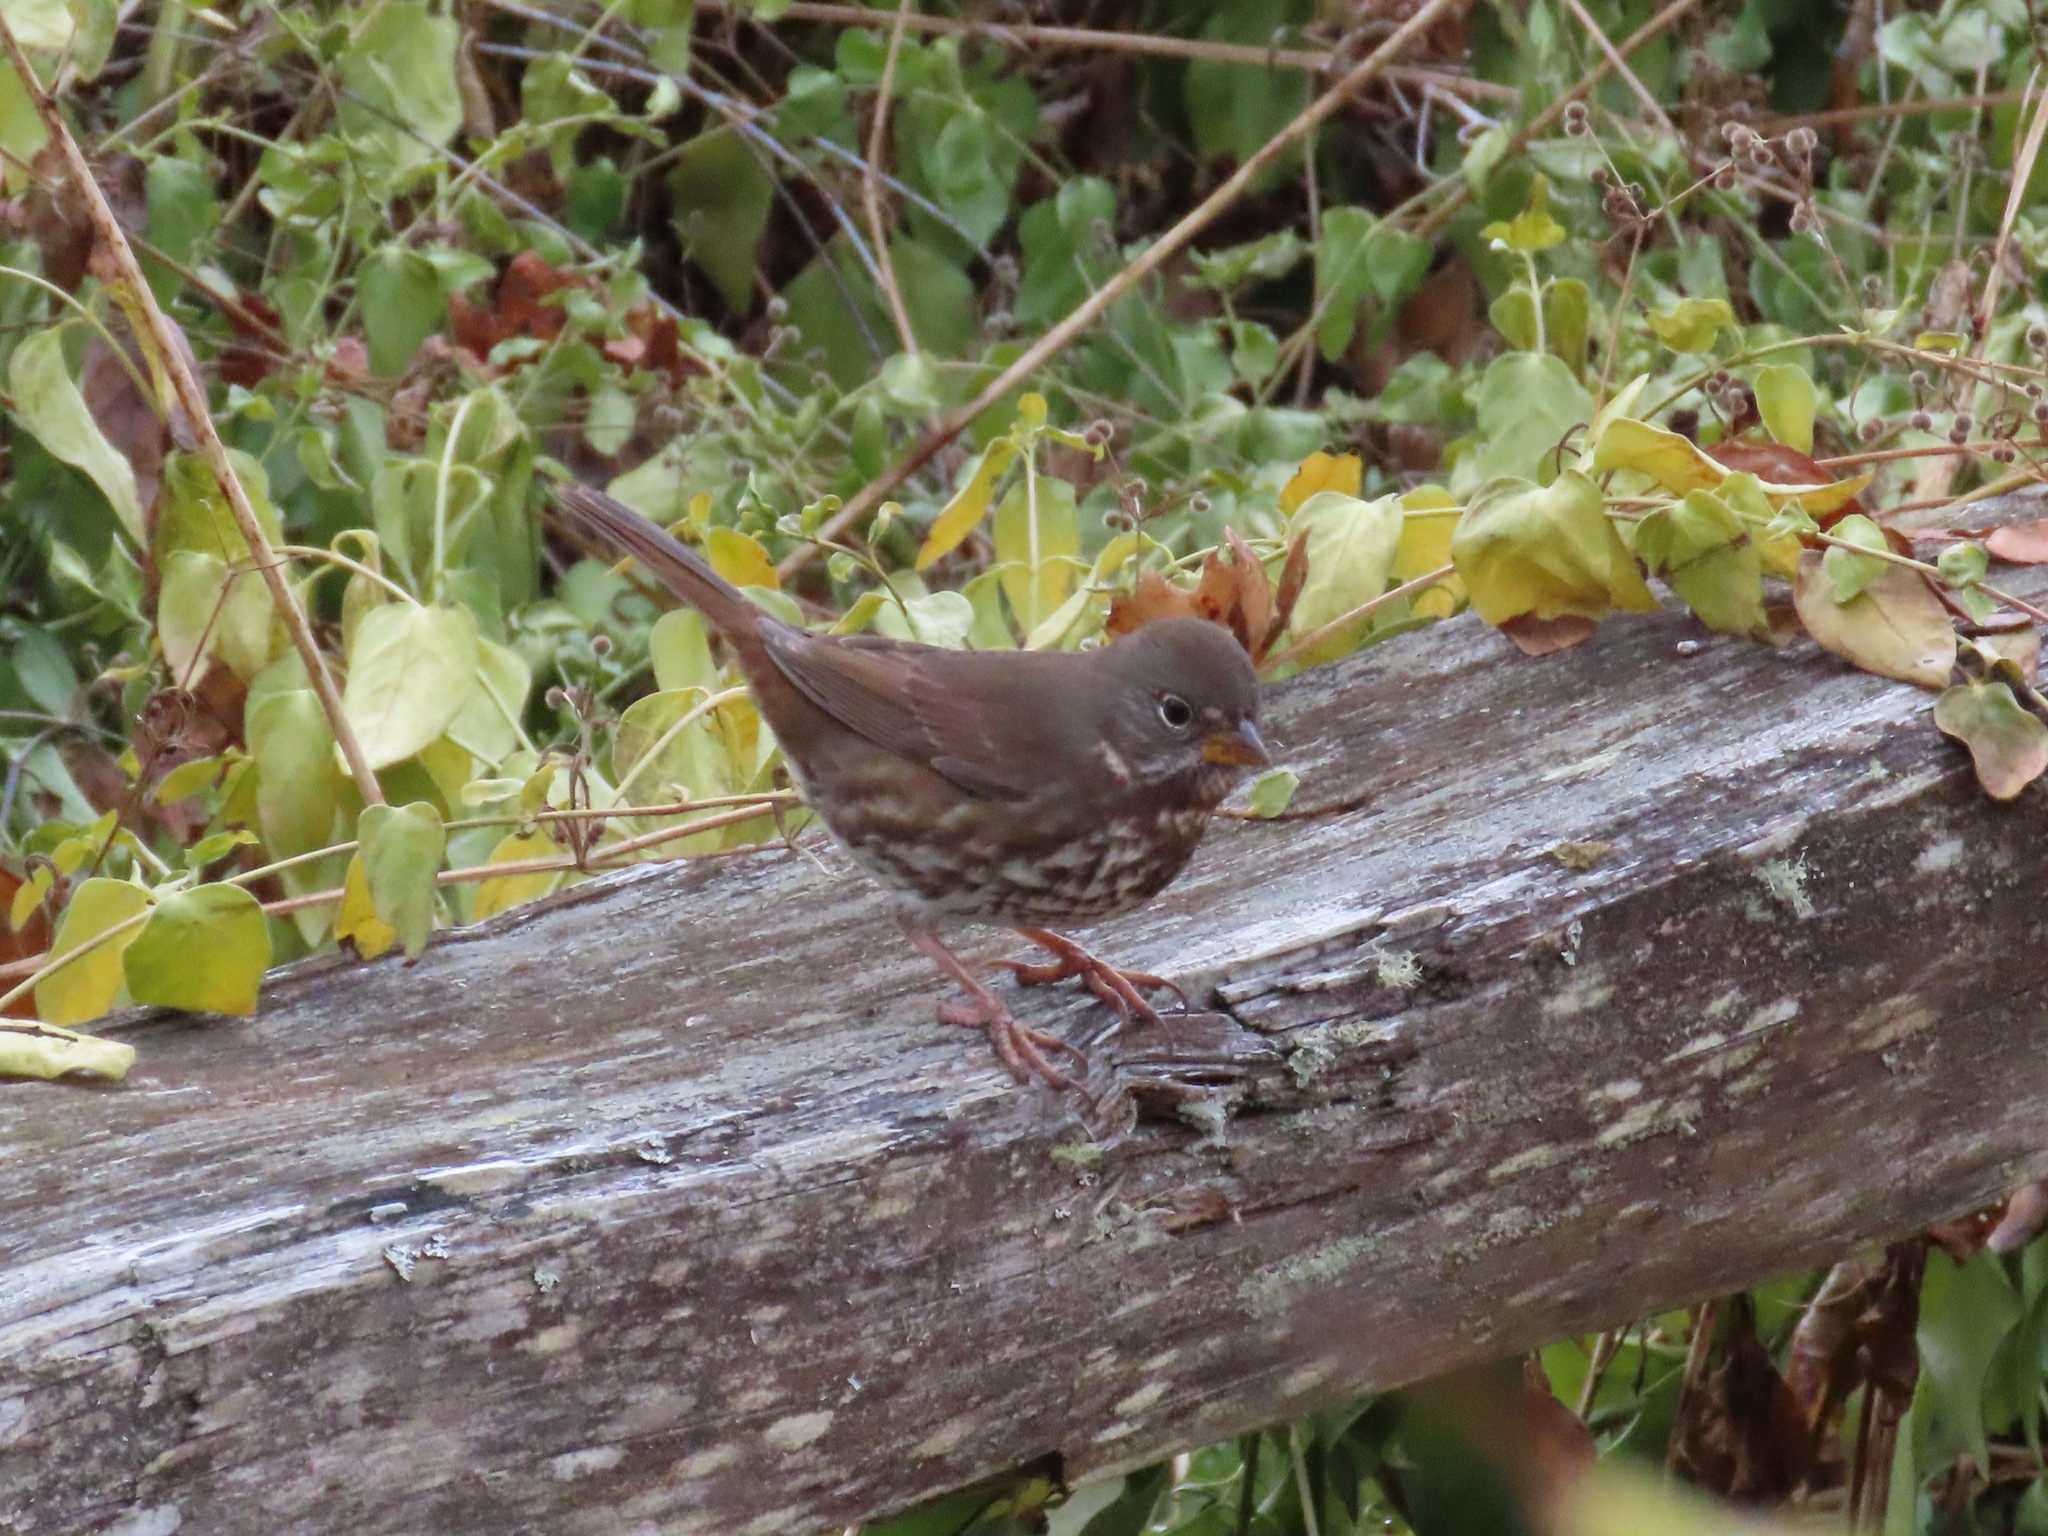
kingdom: Animalia
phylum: Chordata
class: Aves
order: Passeriformes
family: Passerellidae
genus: Passerella
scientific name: Passerella iliaca
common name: Fox sparrow
